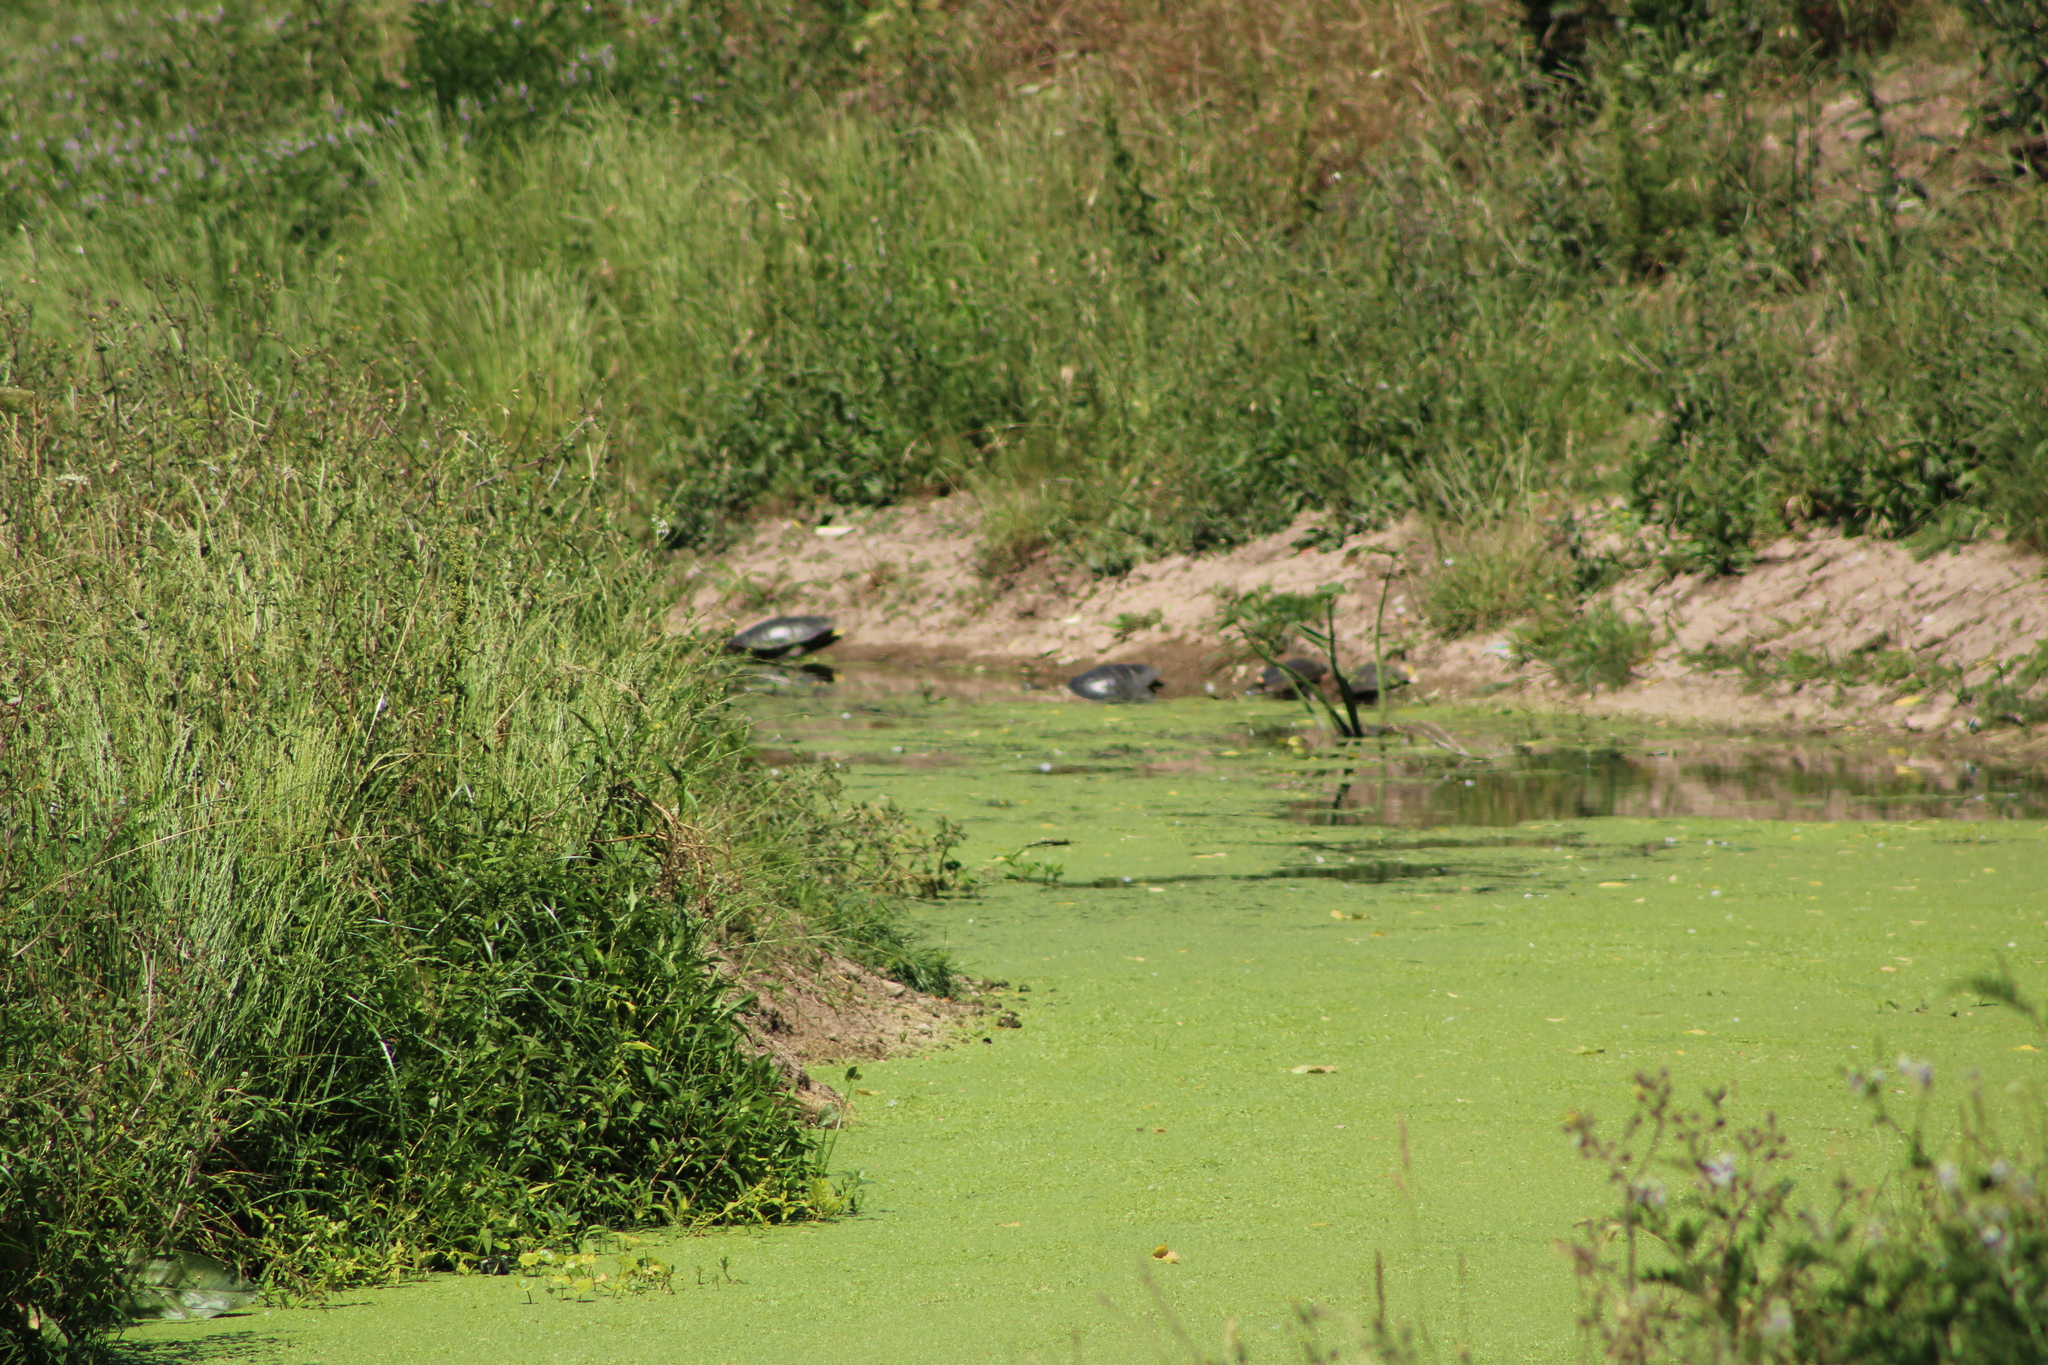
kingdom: Animalia
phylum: Chordata
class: Testudines
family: Chelidae
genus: Phrynops
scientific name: Phrynops hilarii
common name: Side-necked turtle of saint hillaire
